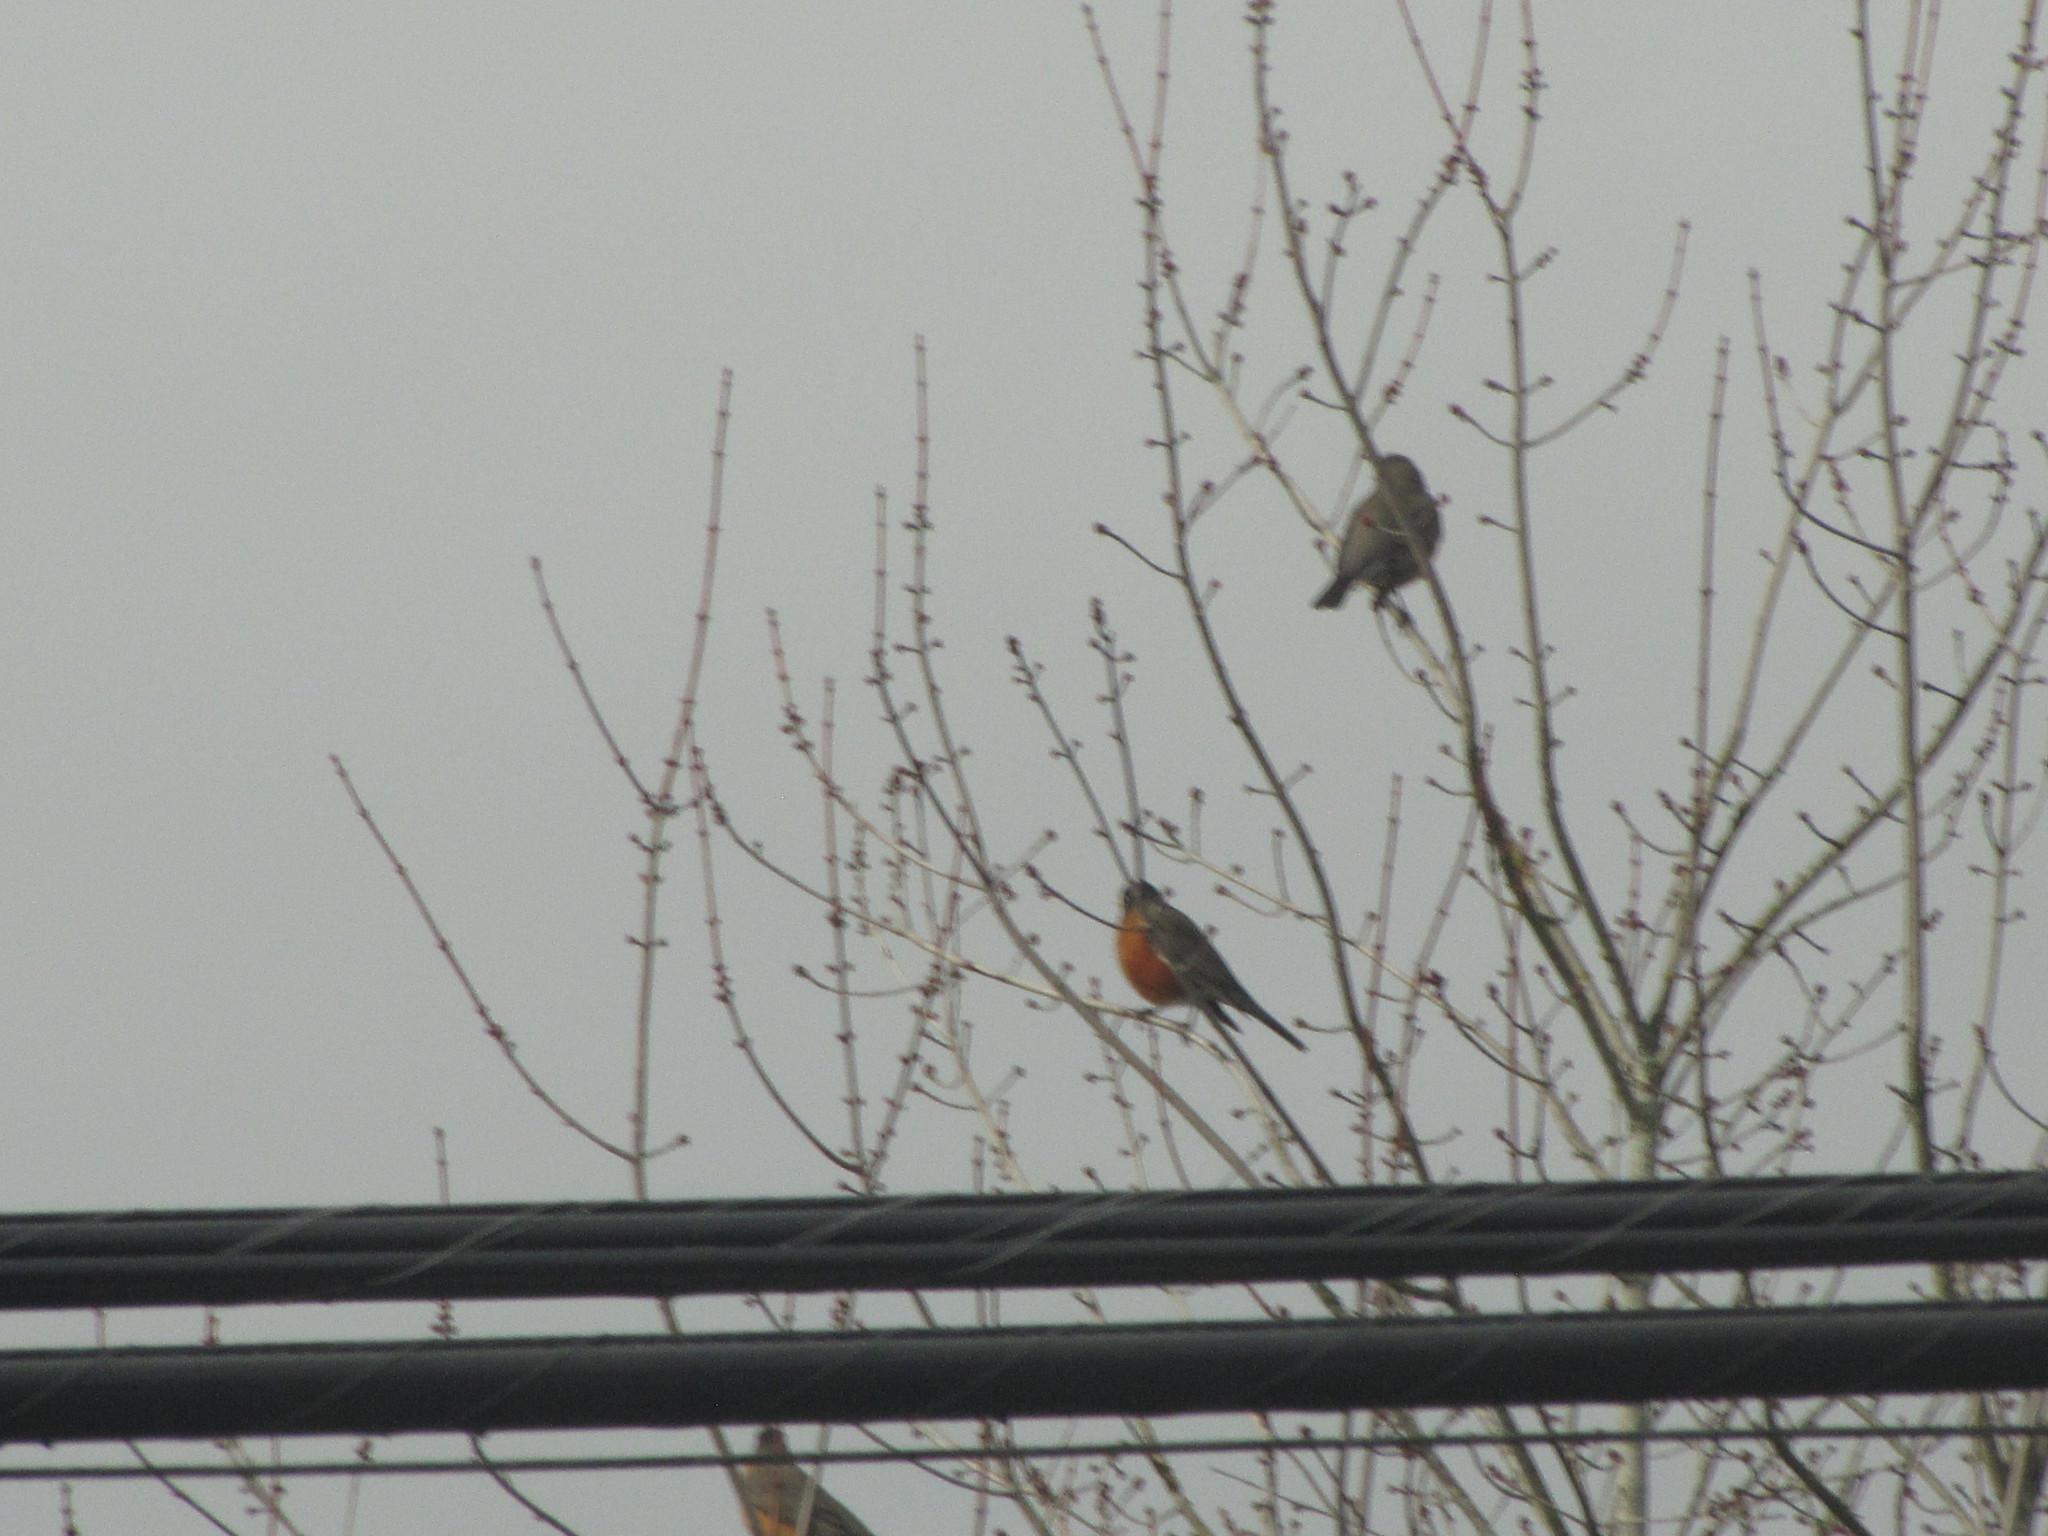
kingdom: Animalia
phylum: Chordata
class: Aves
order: Passeriformes
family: Turdidae
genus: Turdus
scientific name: Turdus migratorius
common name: American robin
